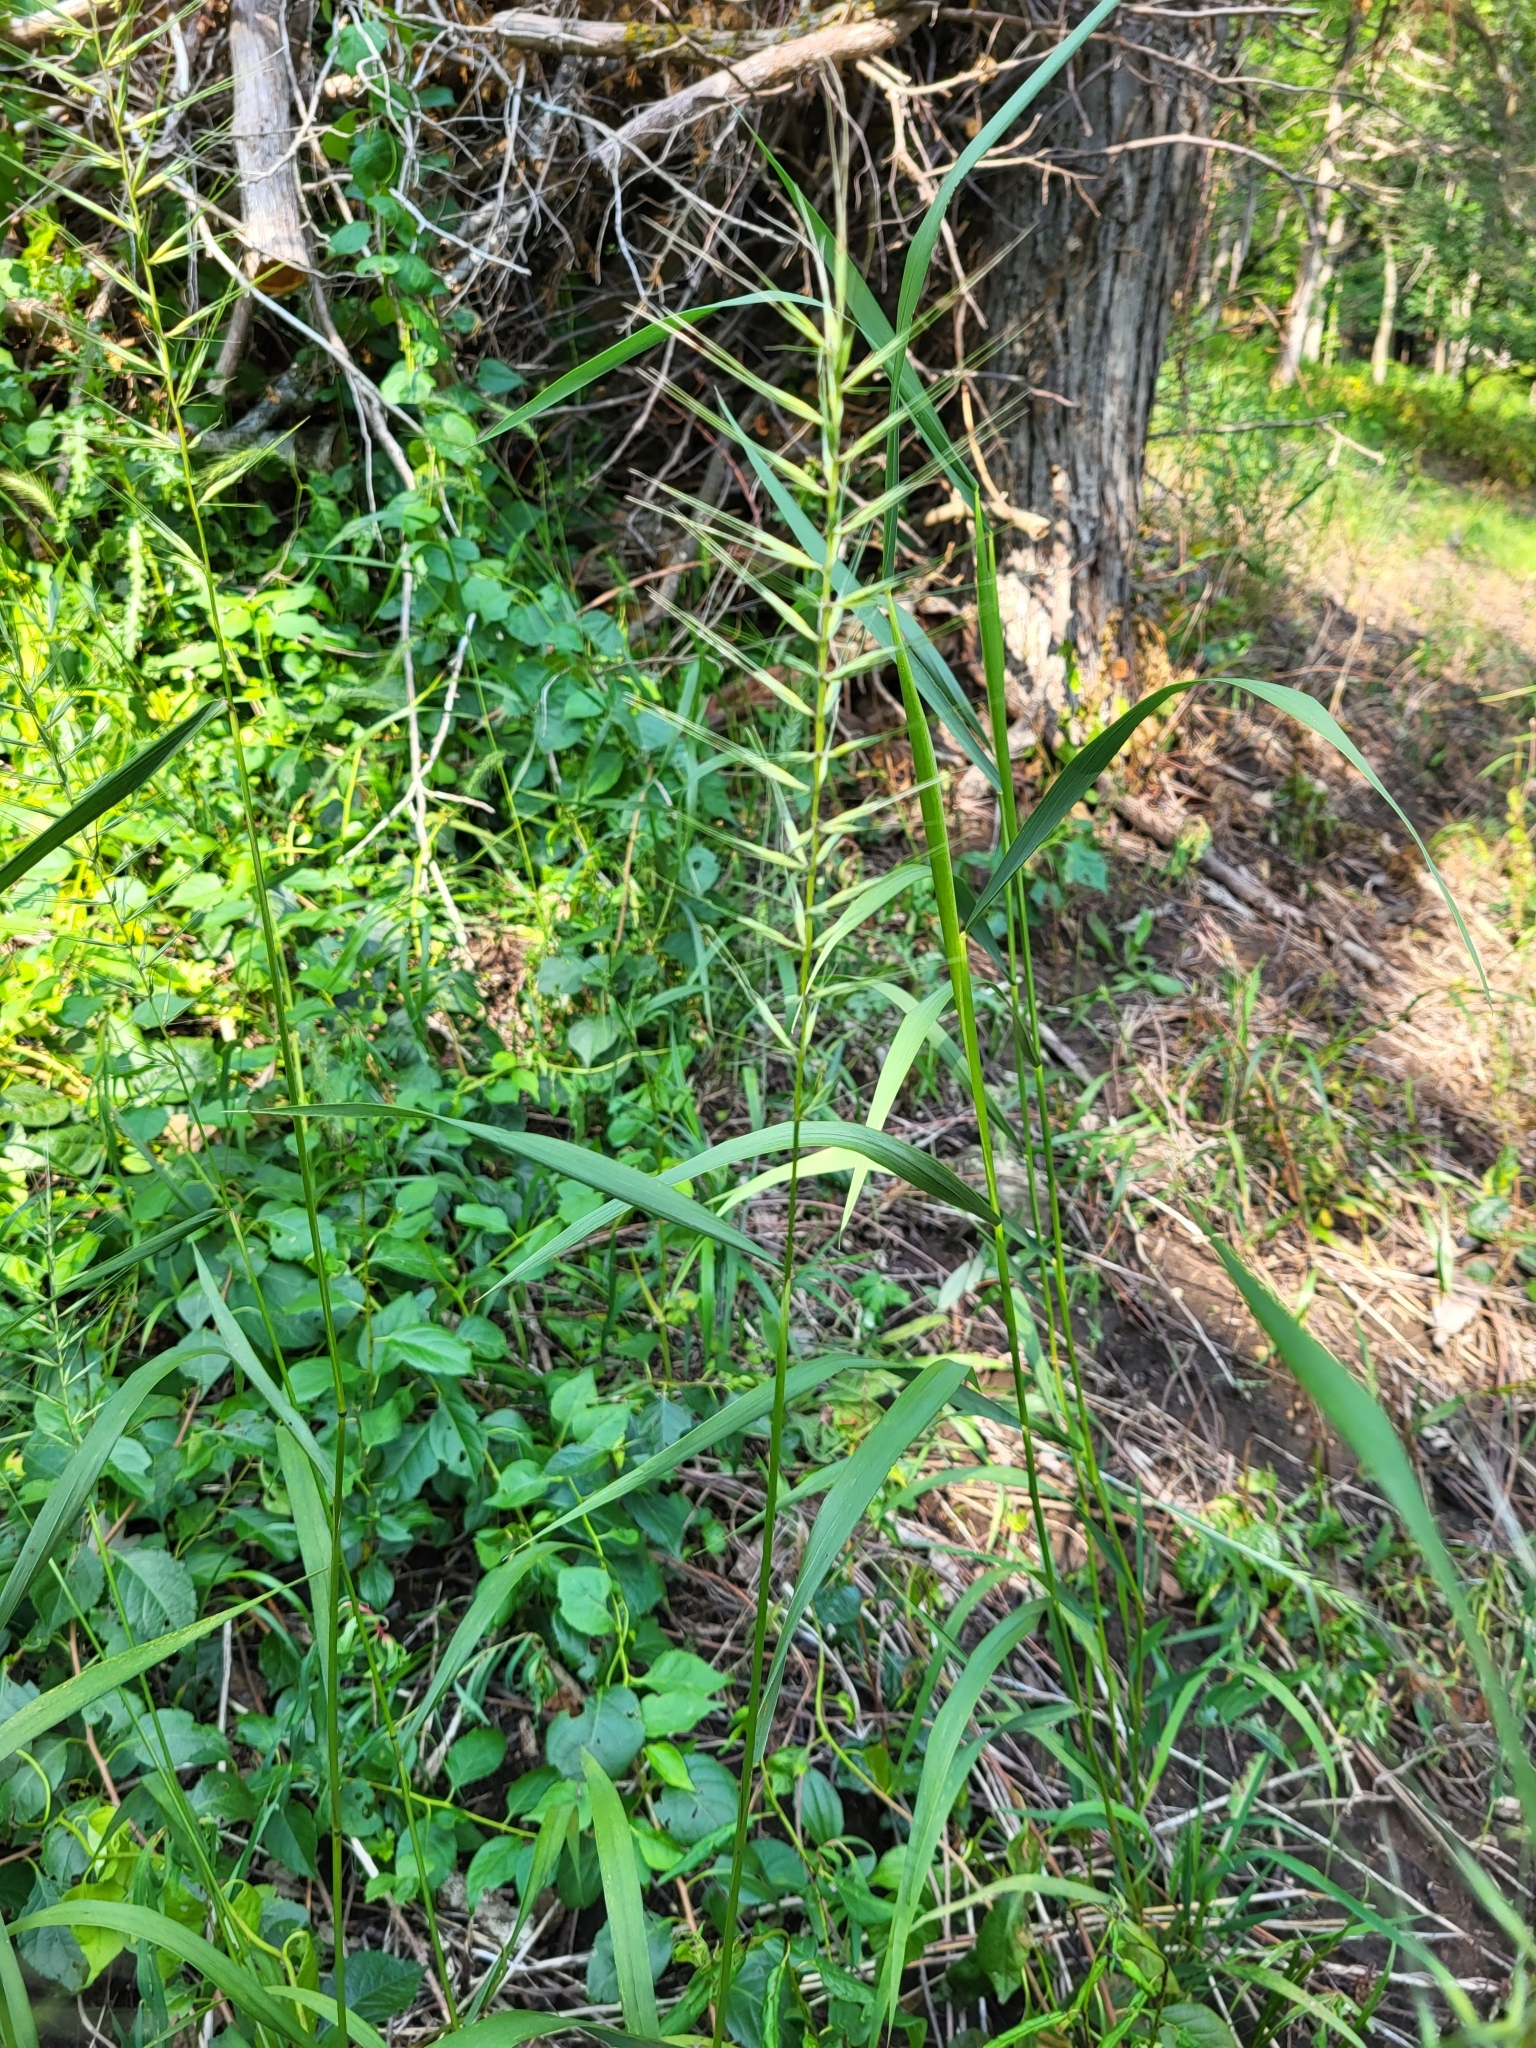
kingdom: Plantae
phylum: Tracheophyta
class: Liliopsida
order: Poales
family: Poaceae
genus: Elymus
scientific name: Elymus hystrix
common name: Bottlebrush grass
